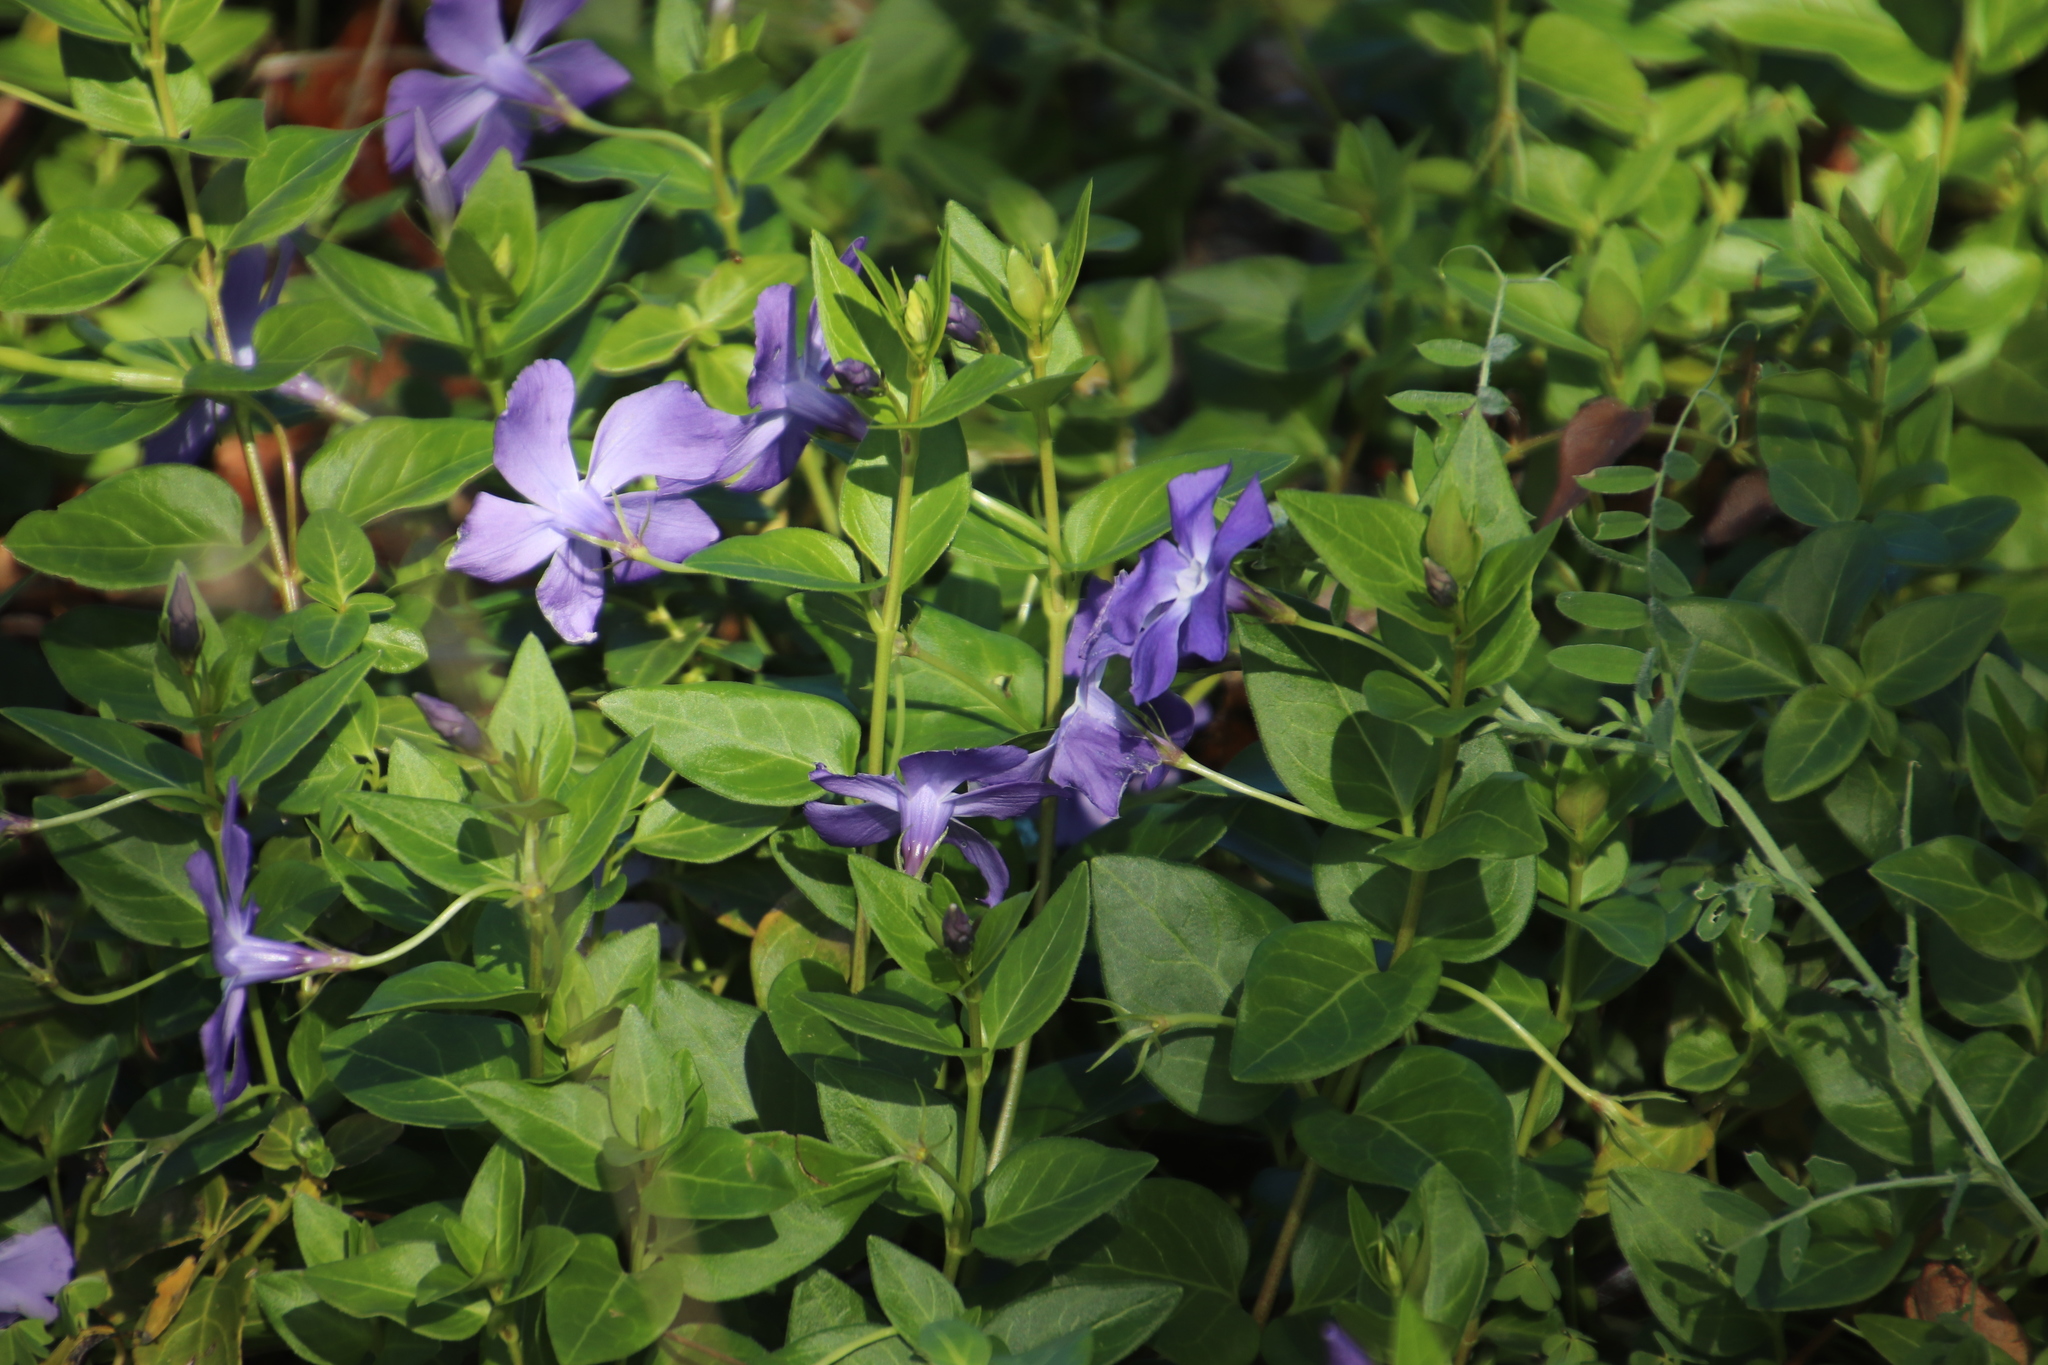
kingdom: Plantae
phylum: Tracheophyta
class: Magnoliopsida
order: Gentianales
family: Apocynaceae
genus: Vinca
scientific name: Vinca major
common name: Greater periwinkle
